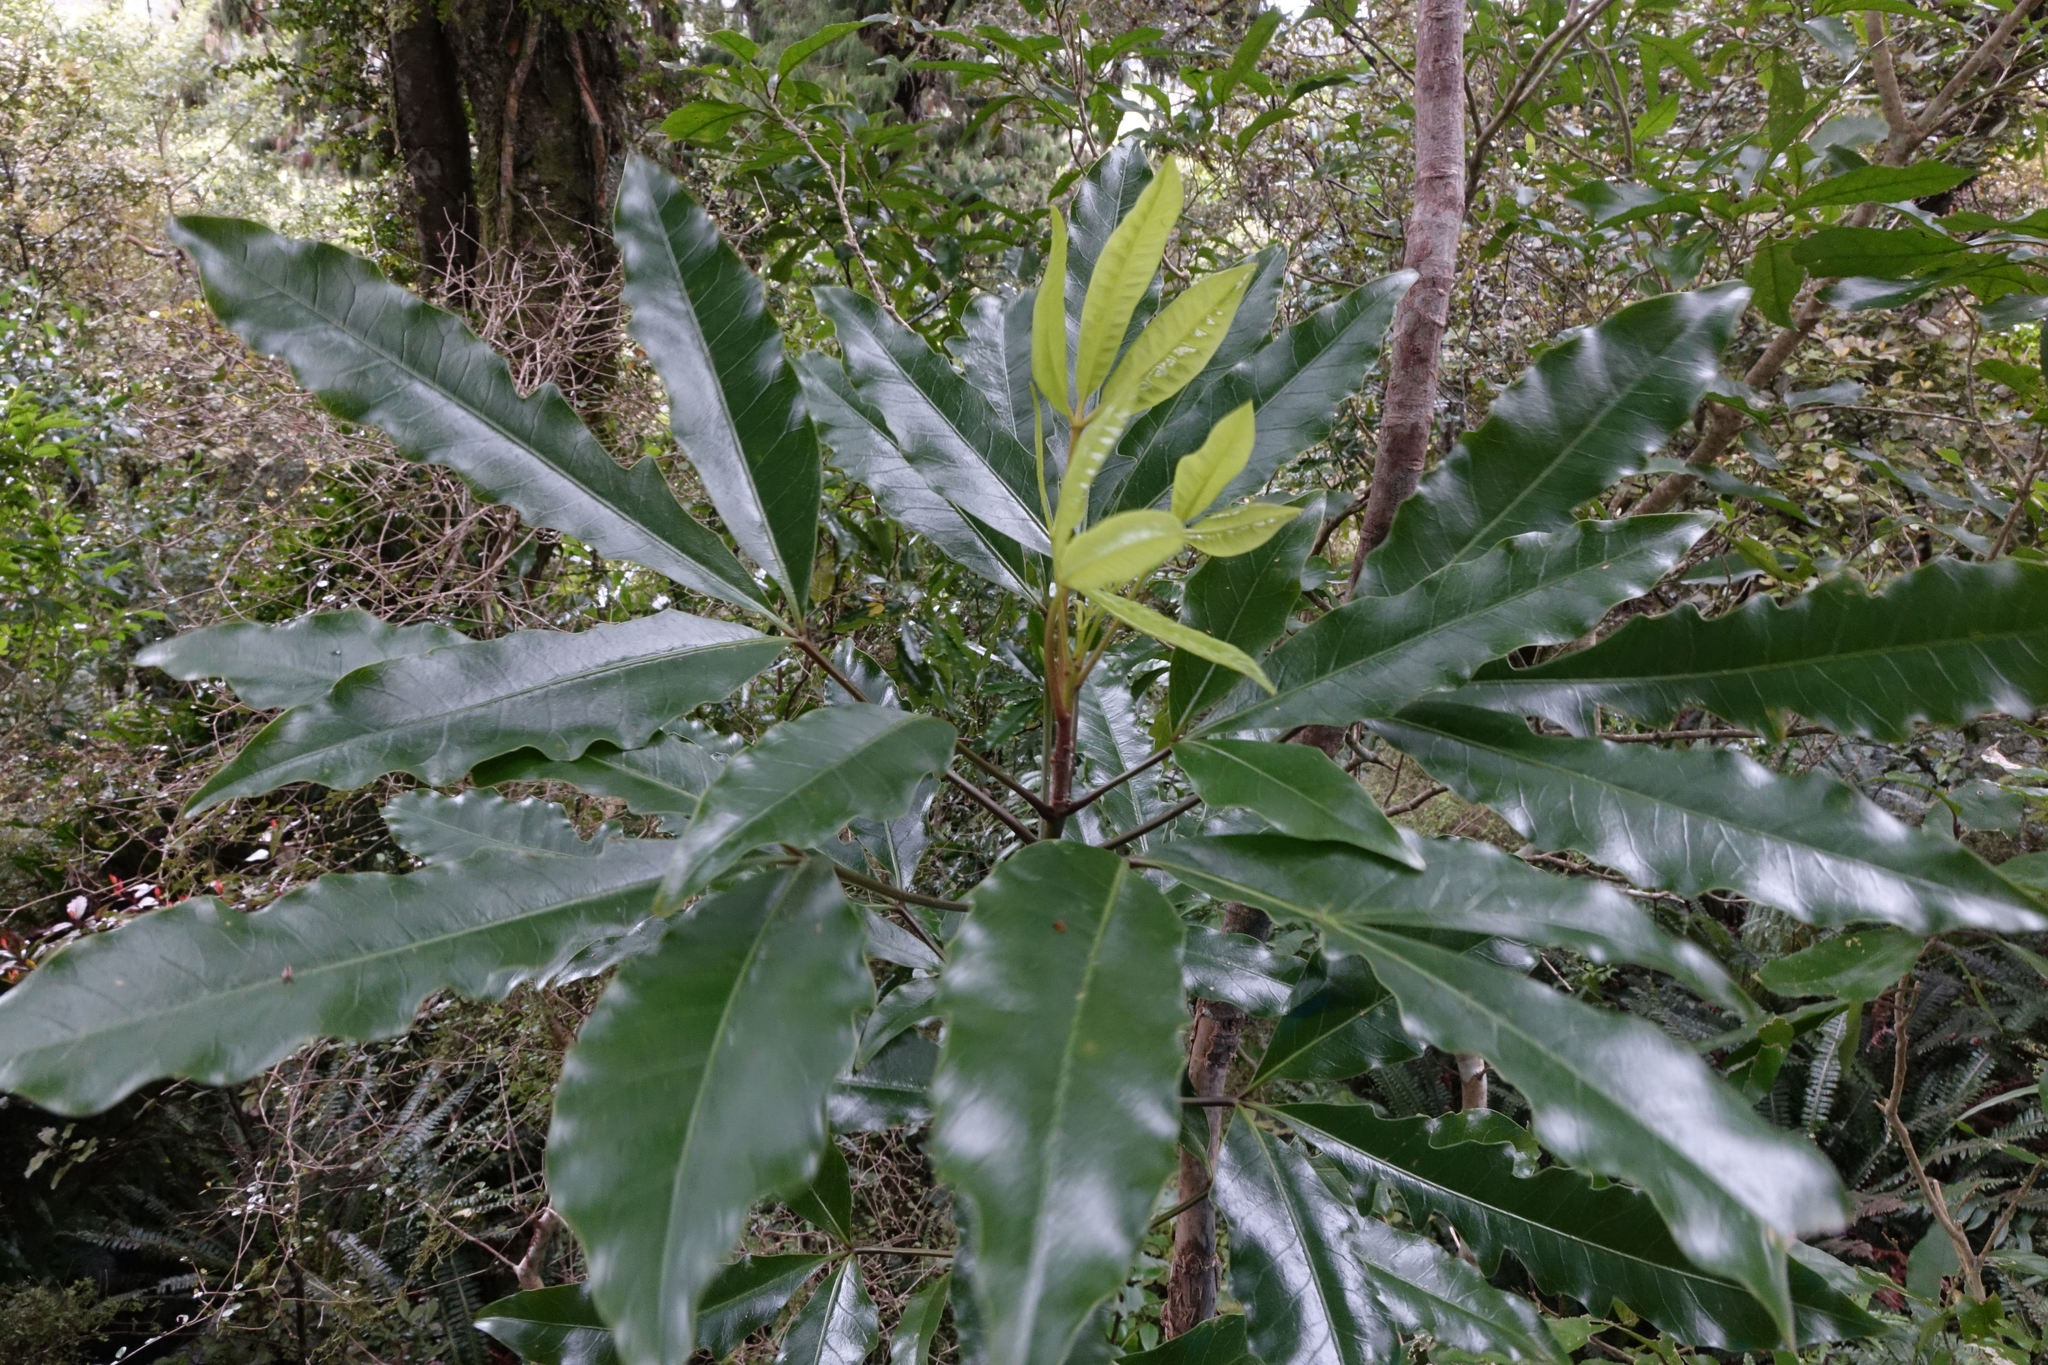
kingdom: Plantae
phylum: Tracheophyta
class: Magnoliopsida
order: Apiales
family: Araliaceae
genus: Raukaua
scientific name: Raukaua edgerleyi
